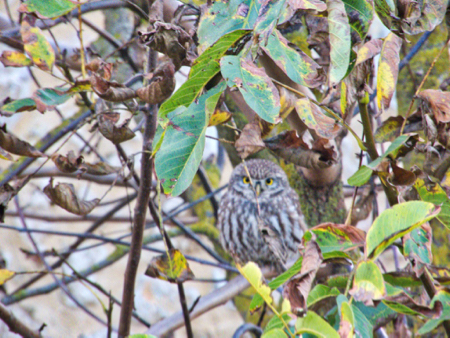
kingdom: Animalia
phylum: Chordata
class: Aves
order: Strigiformes
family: Strigidae
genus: Athene
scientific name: Athene noctua
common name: Little owl
